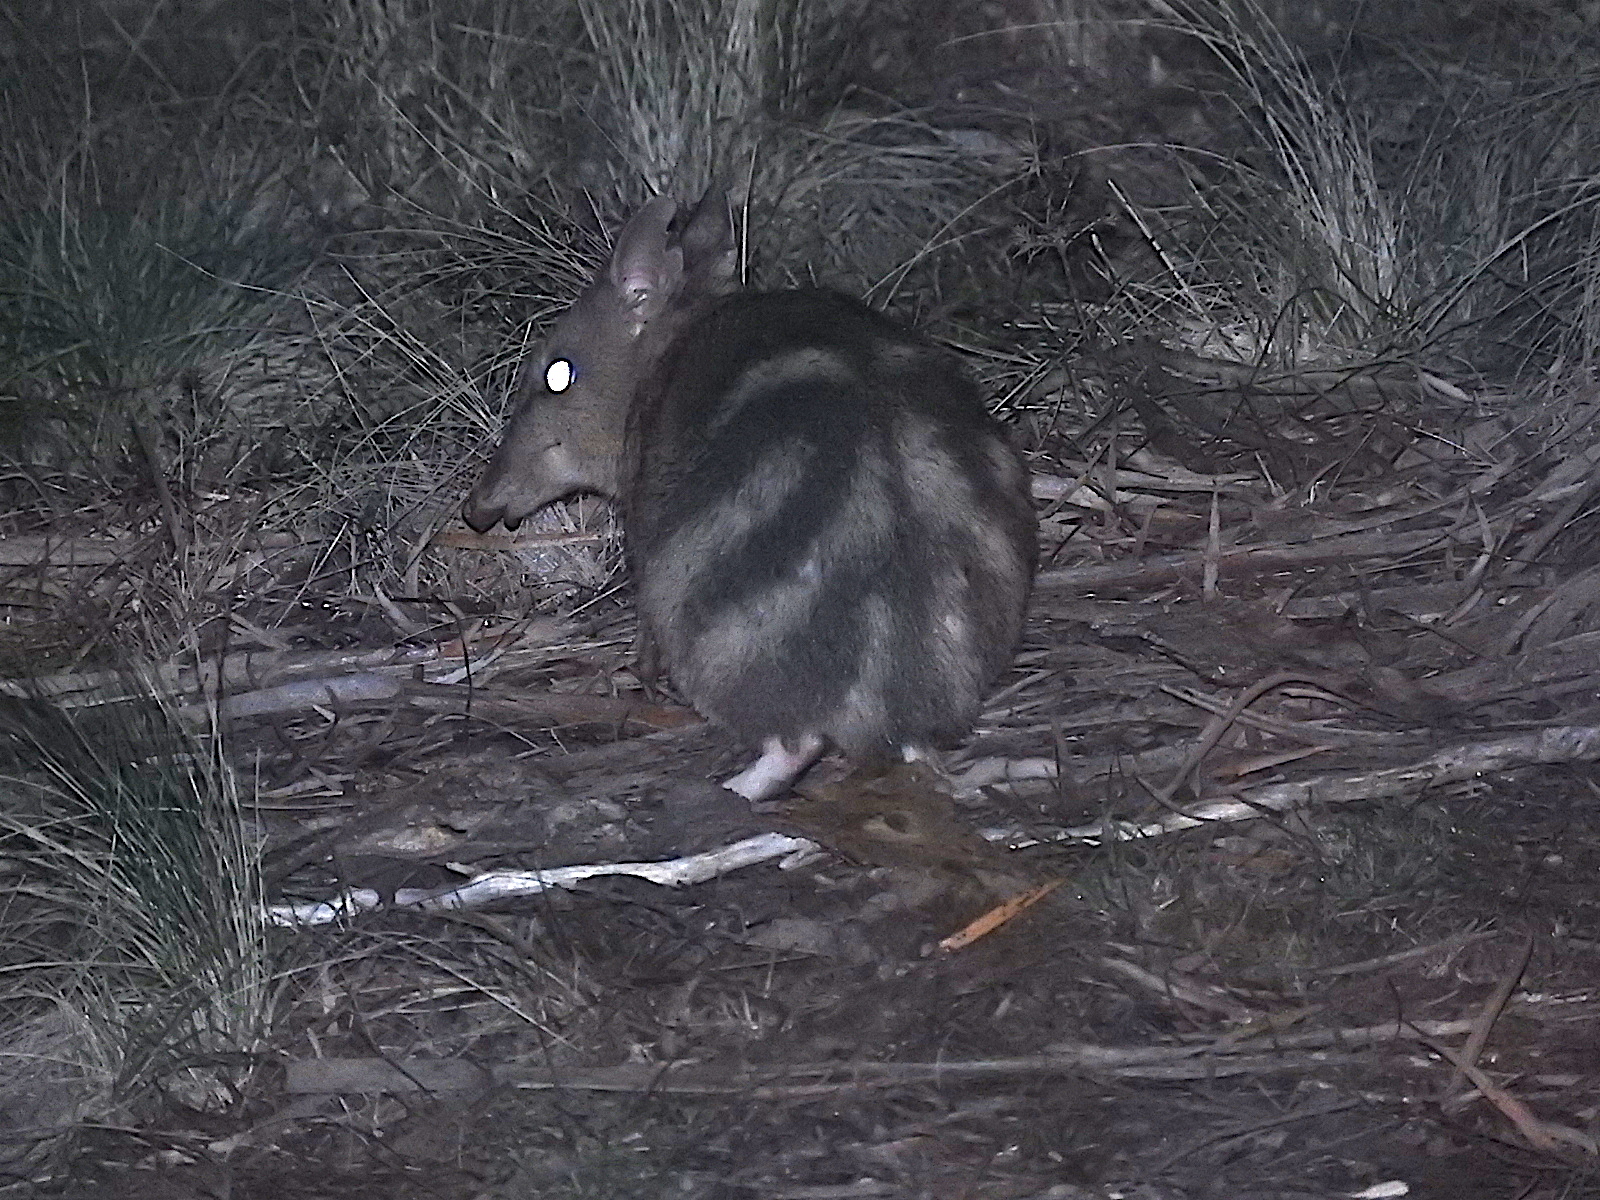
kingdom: Animalia
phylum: Chordata
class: Mammalia
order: Peramelemorphia
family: Peramelidae
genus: Perameles
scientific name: Perameles gunnii
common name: Eastern barred bandicoot
